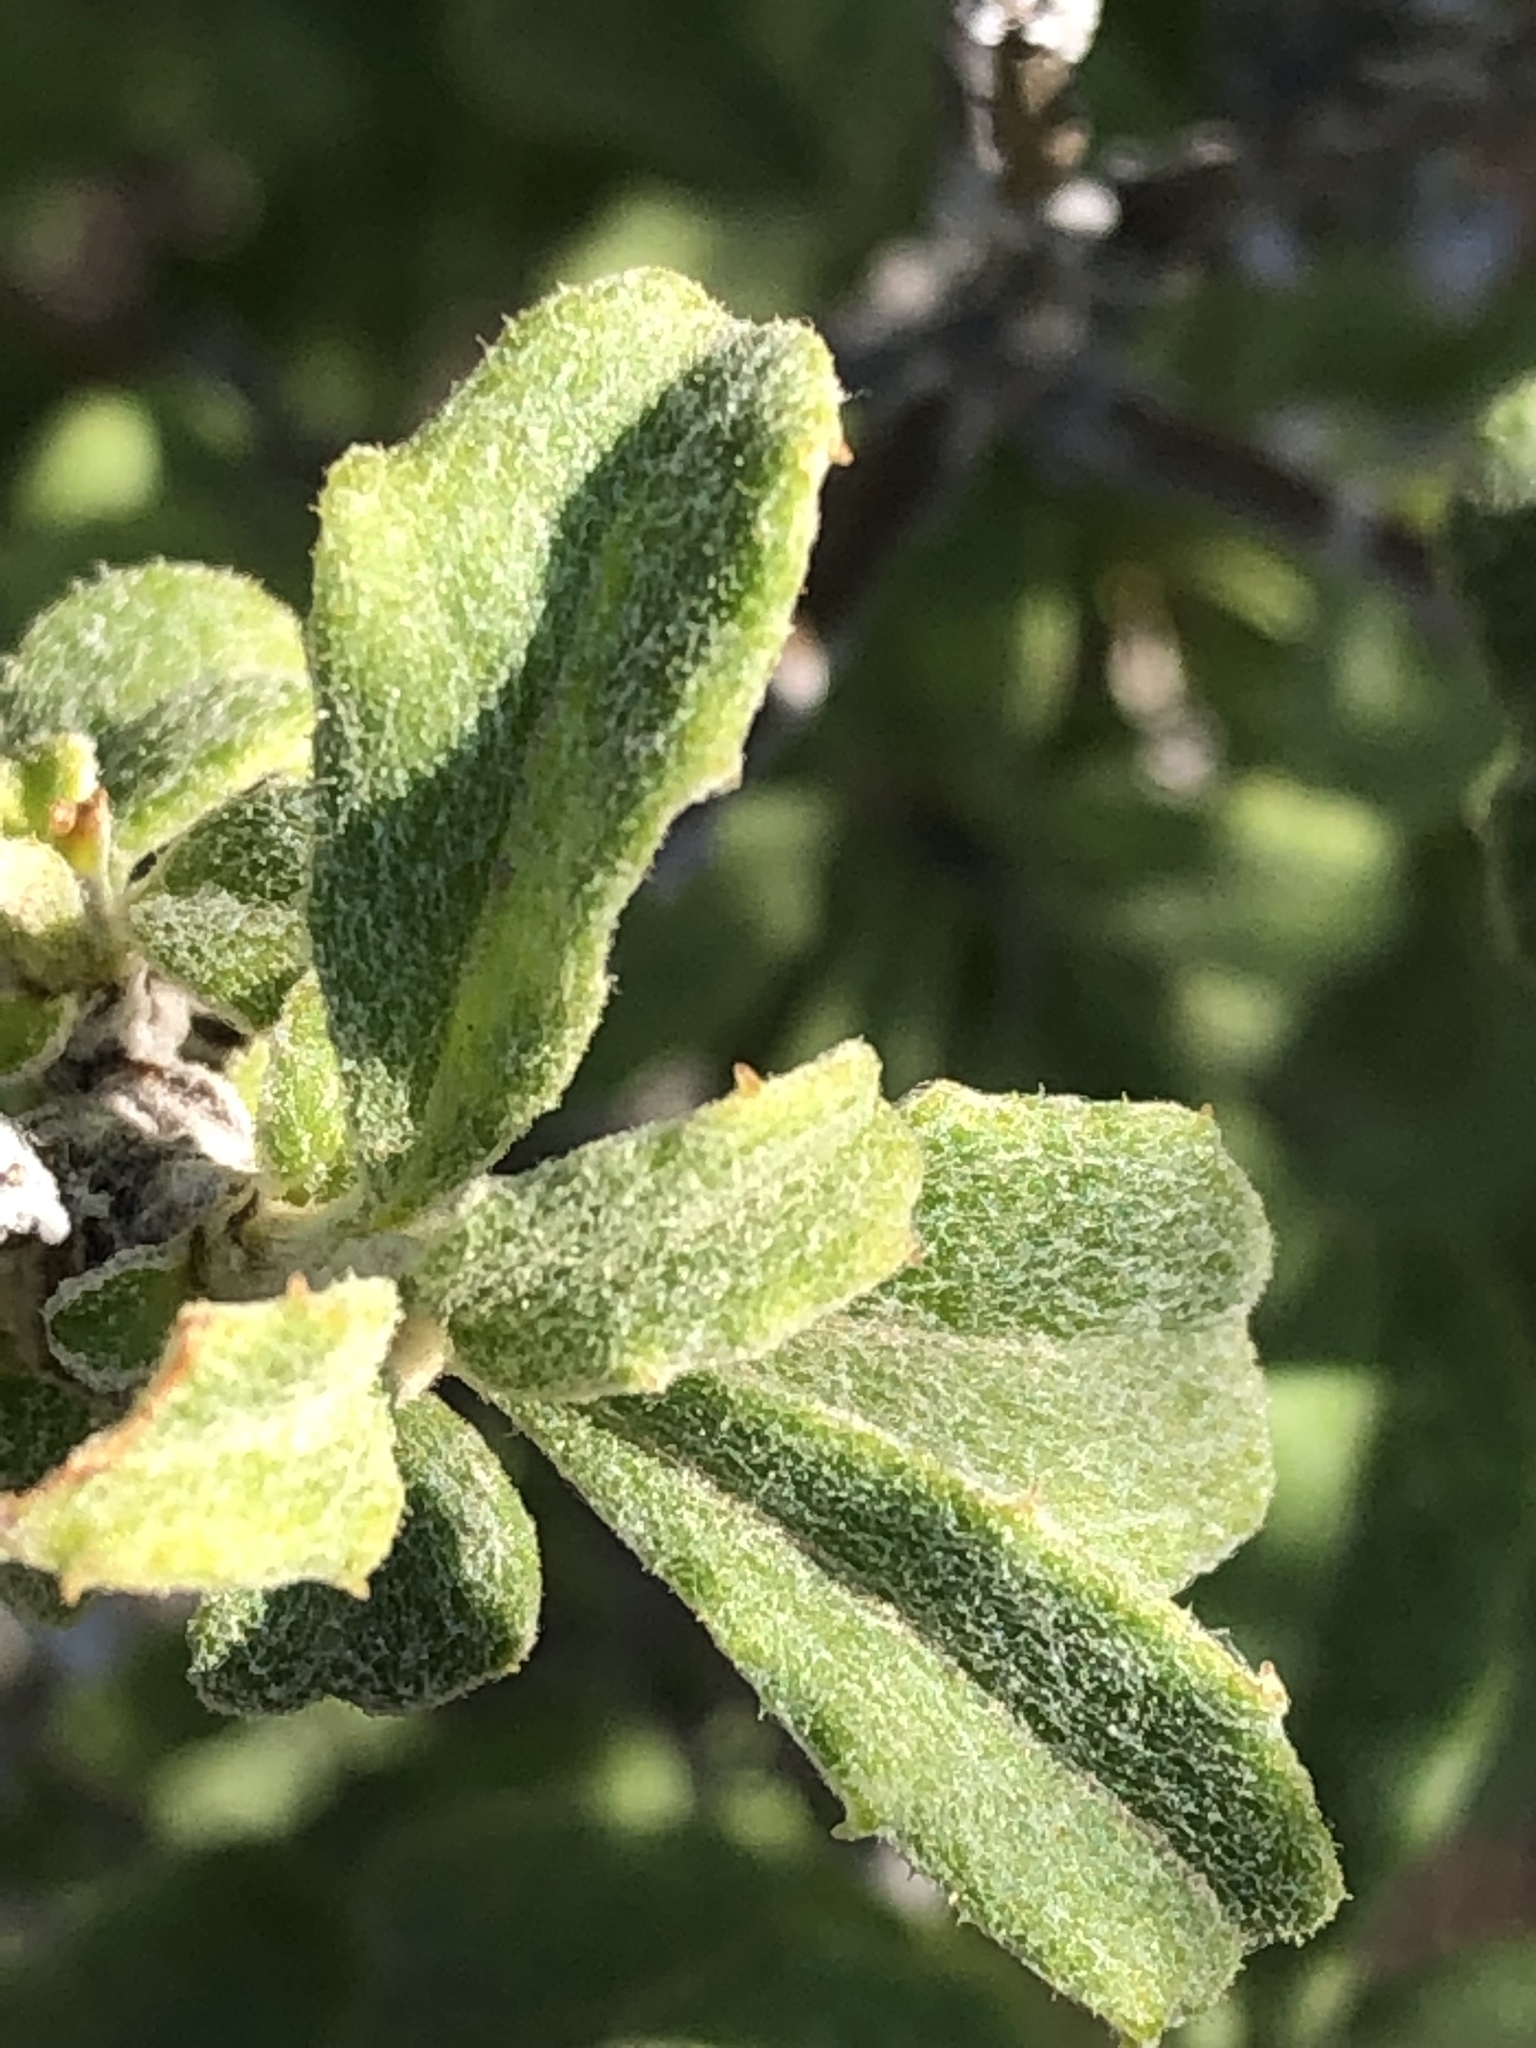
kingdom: Plantae
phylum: Tracheophyta
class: Magnoliopsida
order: Asterales
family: Asteraceae
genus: Printzia
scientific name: Printzia polifolia
